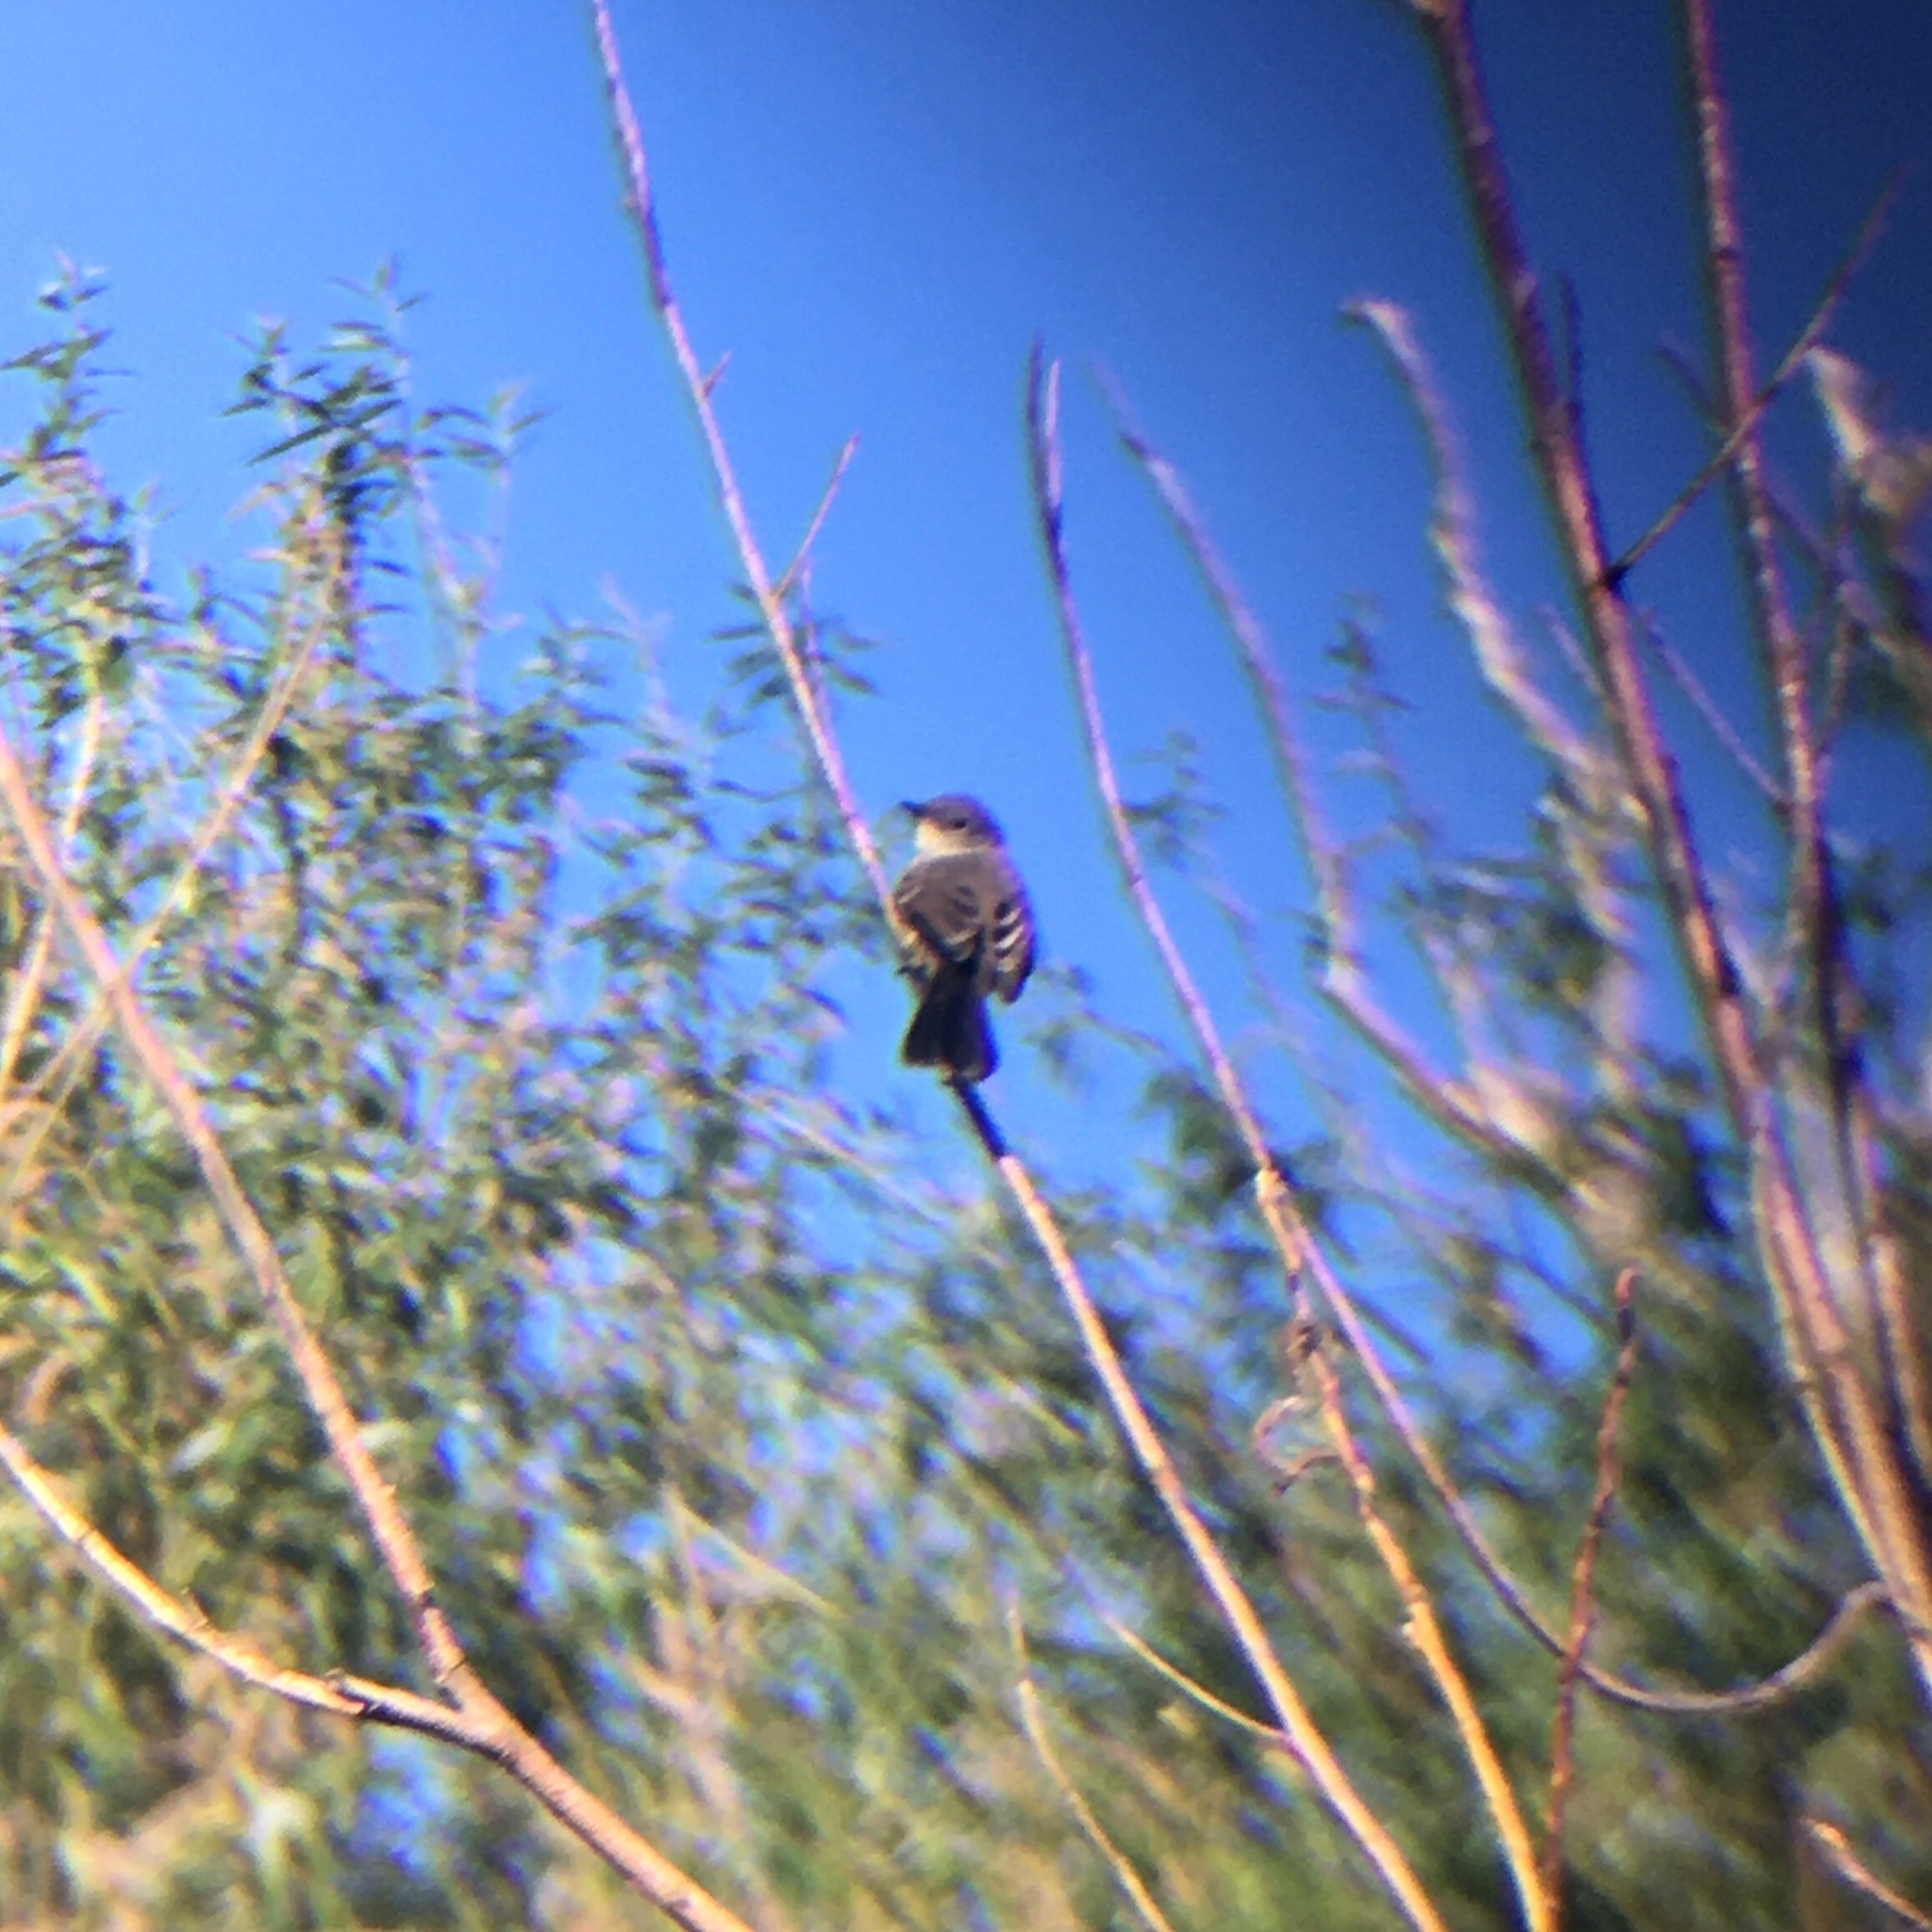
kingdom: Animalia
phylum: Chordata
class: Aves
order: Passeriformes
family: Tyrannidae
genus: Serpophaga
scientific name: Serpophaga nigricans
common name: Sooty tyrannulet
